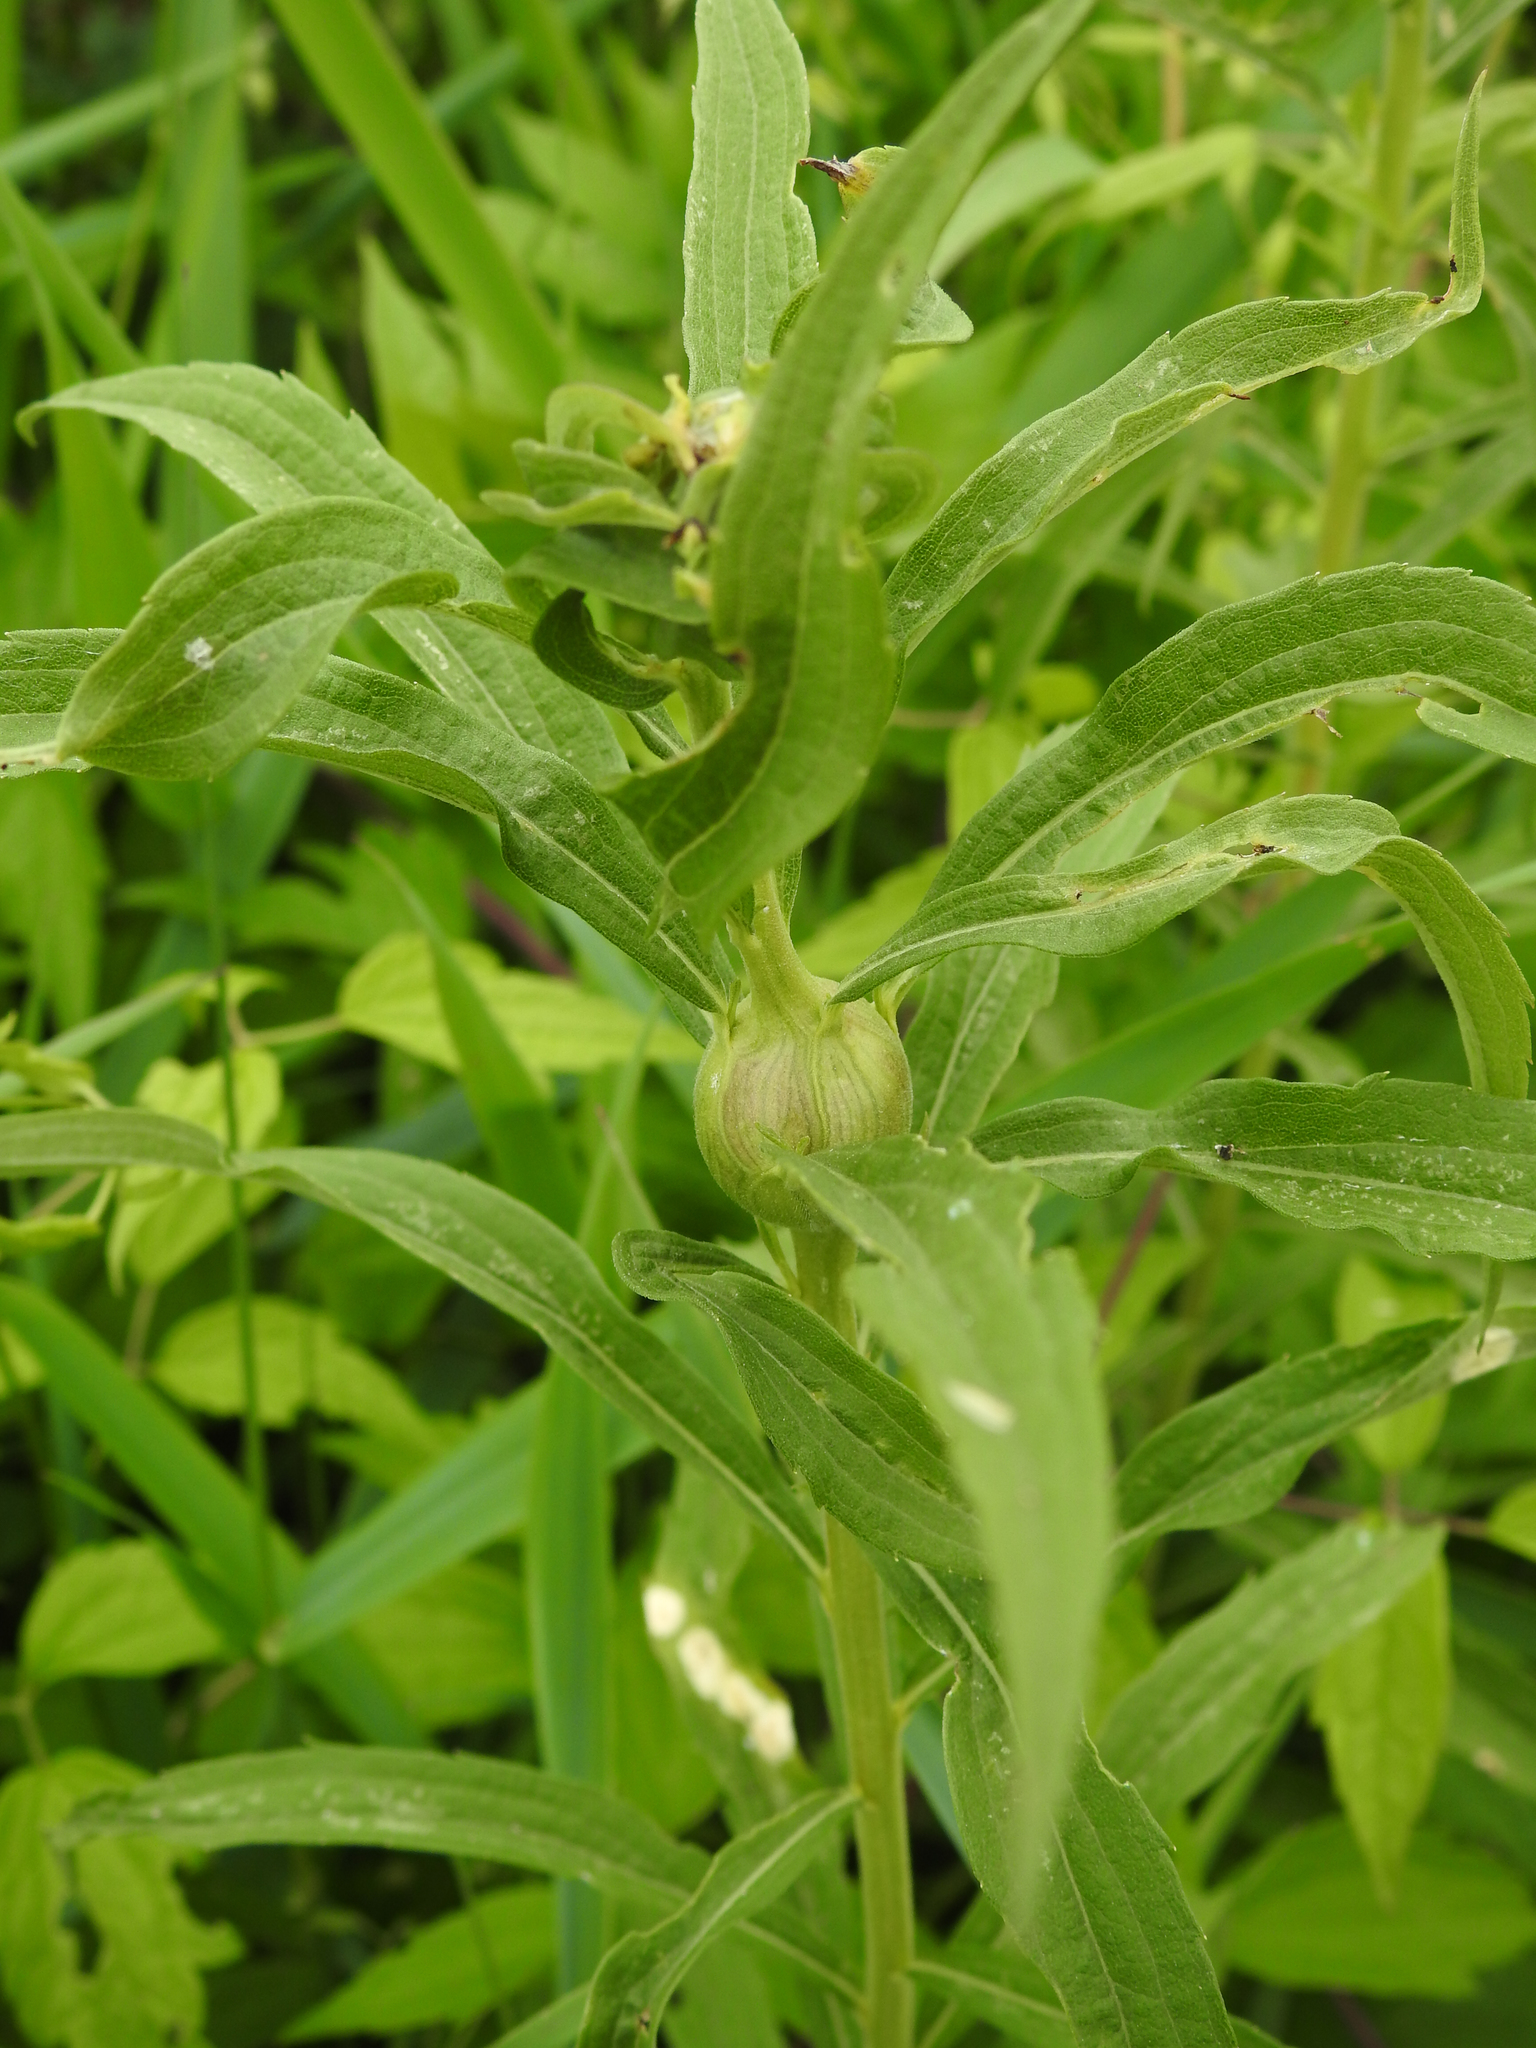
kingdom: Animalia
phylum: Arthropoda
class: Insecta
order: Diptera
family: Tephritidae
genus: Eurosta
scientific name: Eurosta solidaginis
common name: Goldenrod gall fly
